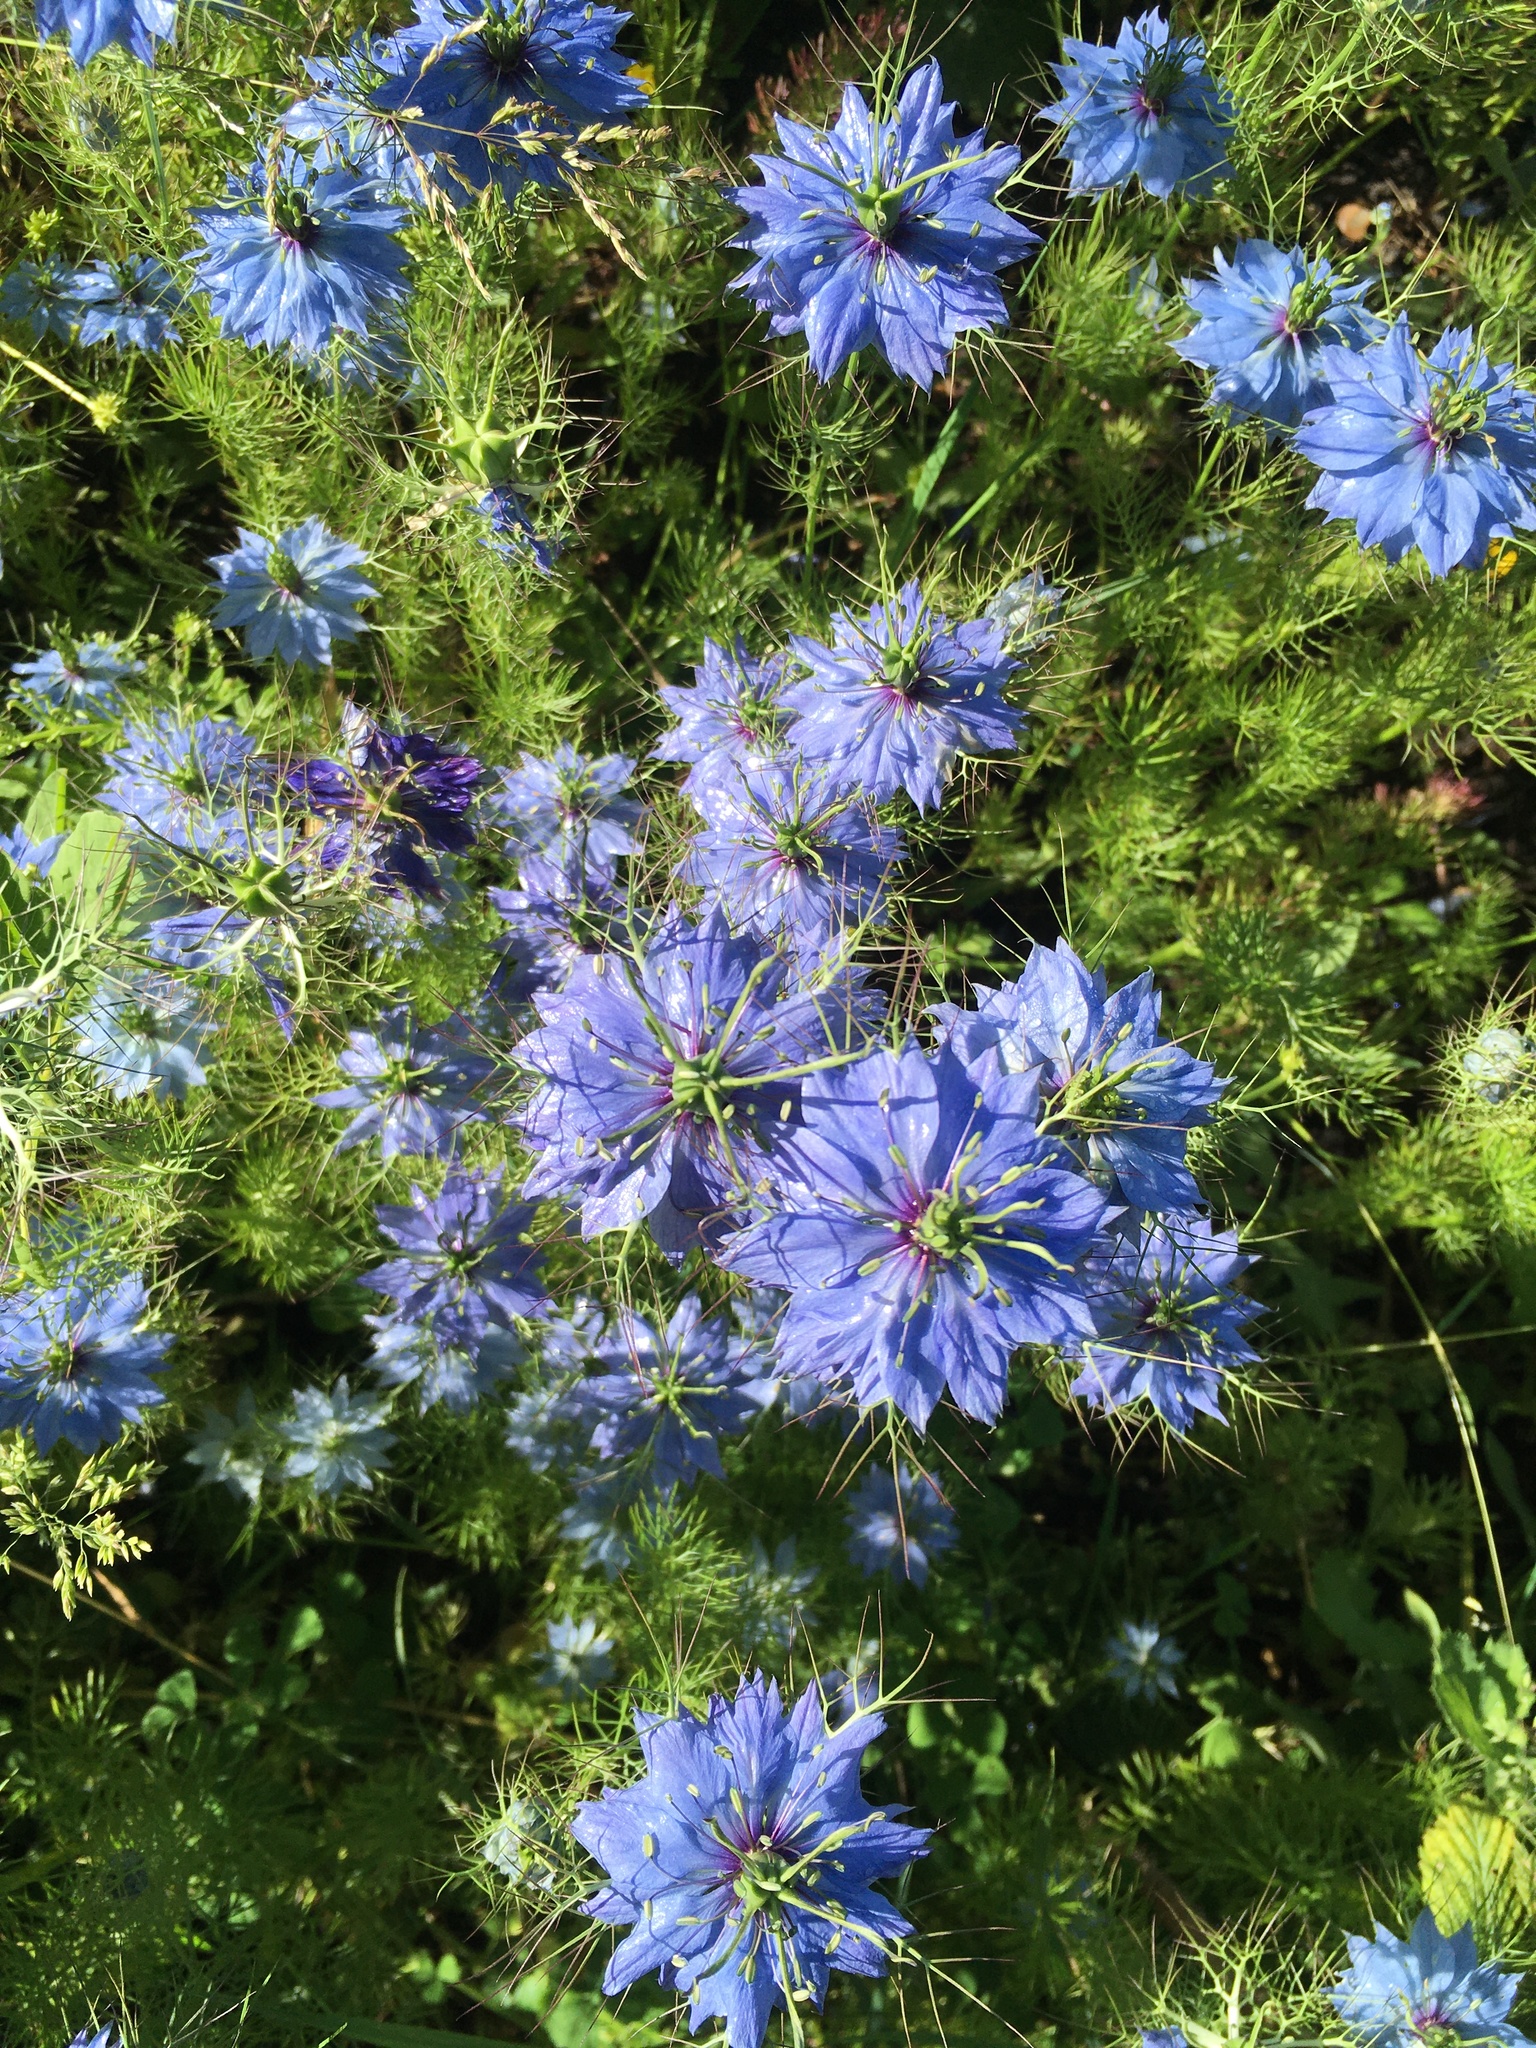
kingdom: Plantae
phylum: Tracheophyta
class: Magnoliopsida
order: Ranunculales
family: Ranunculaceae
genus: Nigella
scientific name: Nigella damascena
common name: Love-in-a-mist
